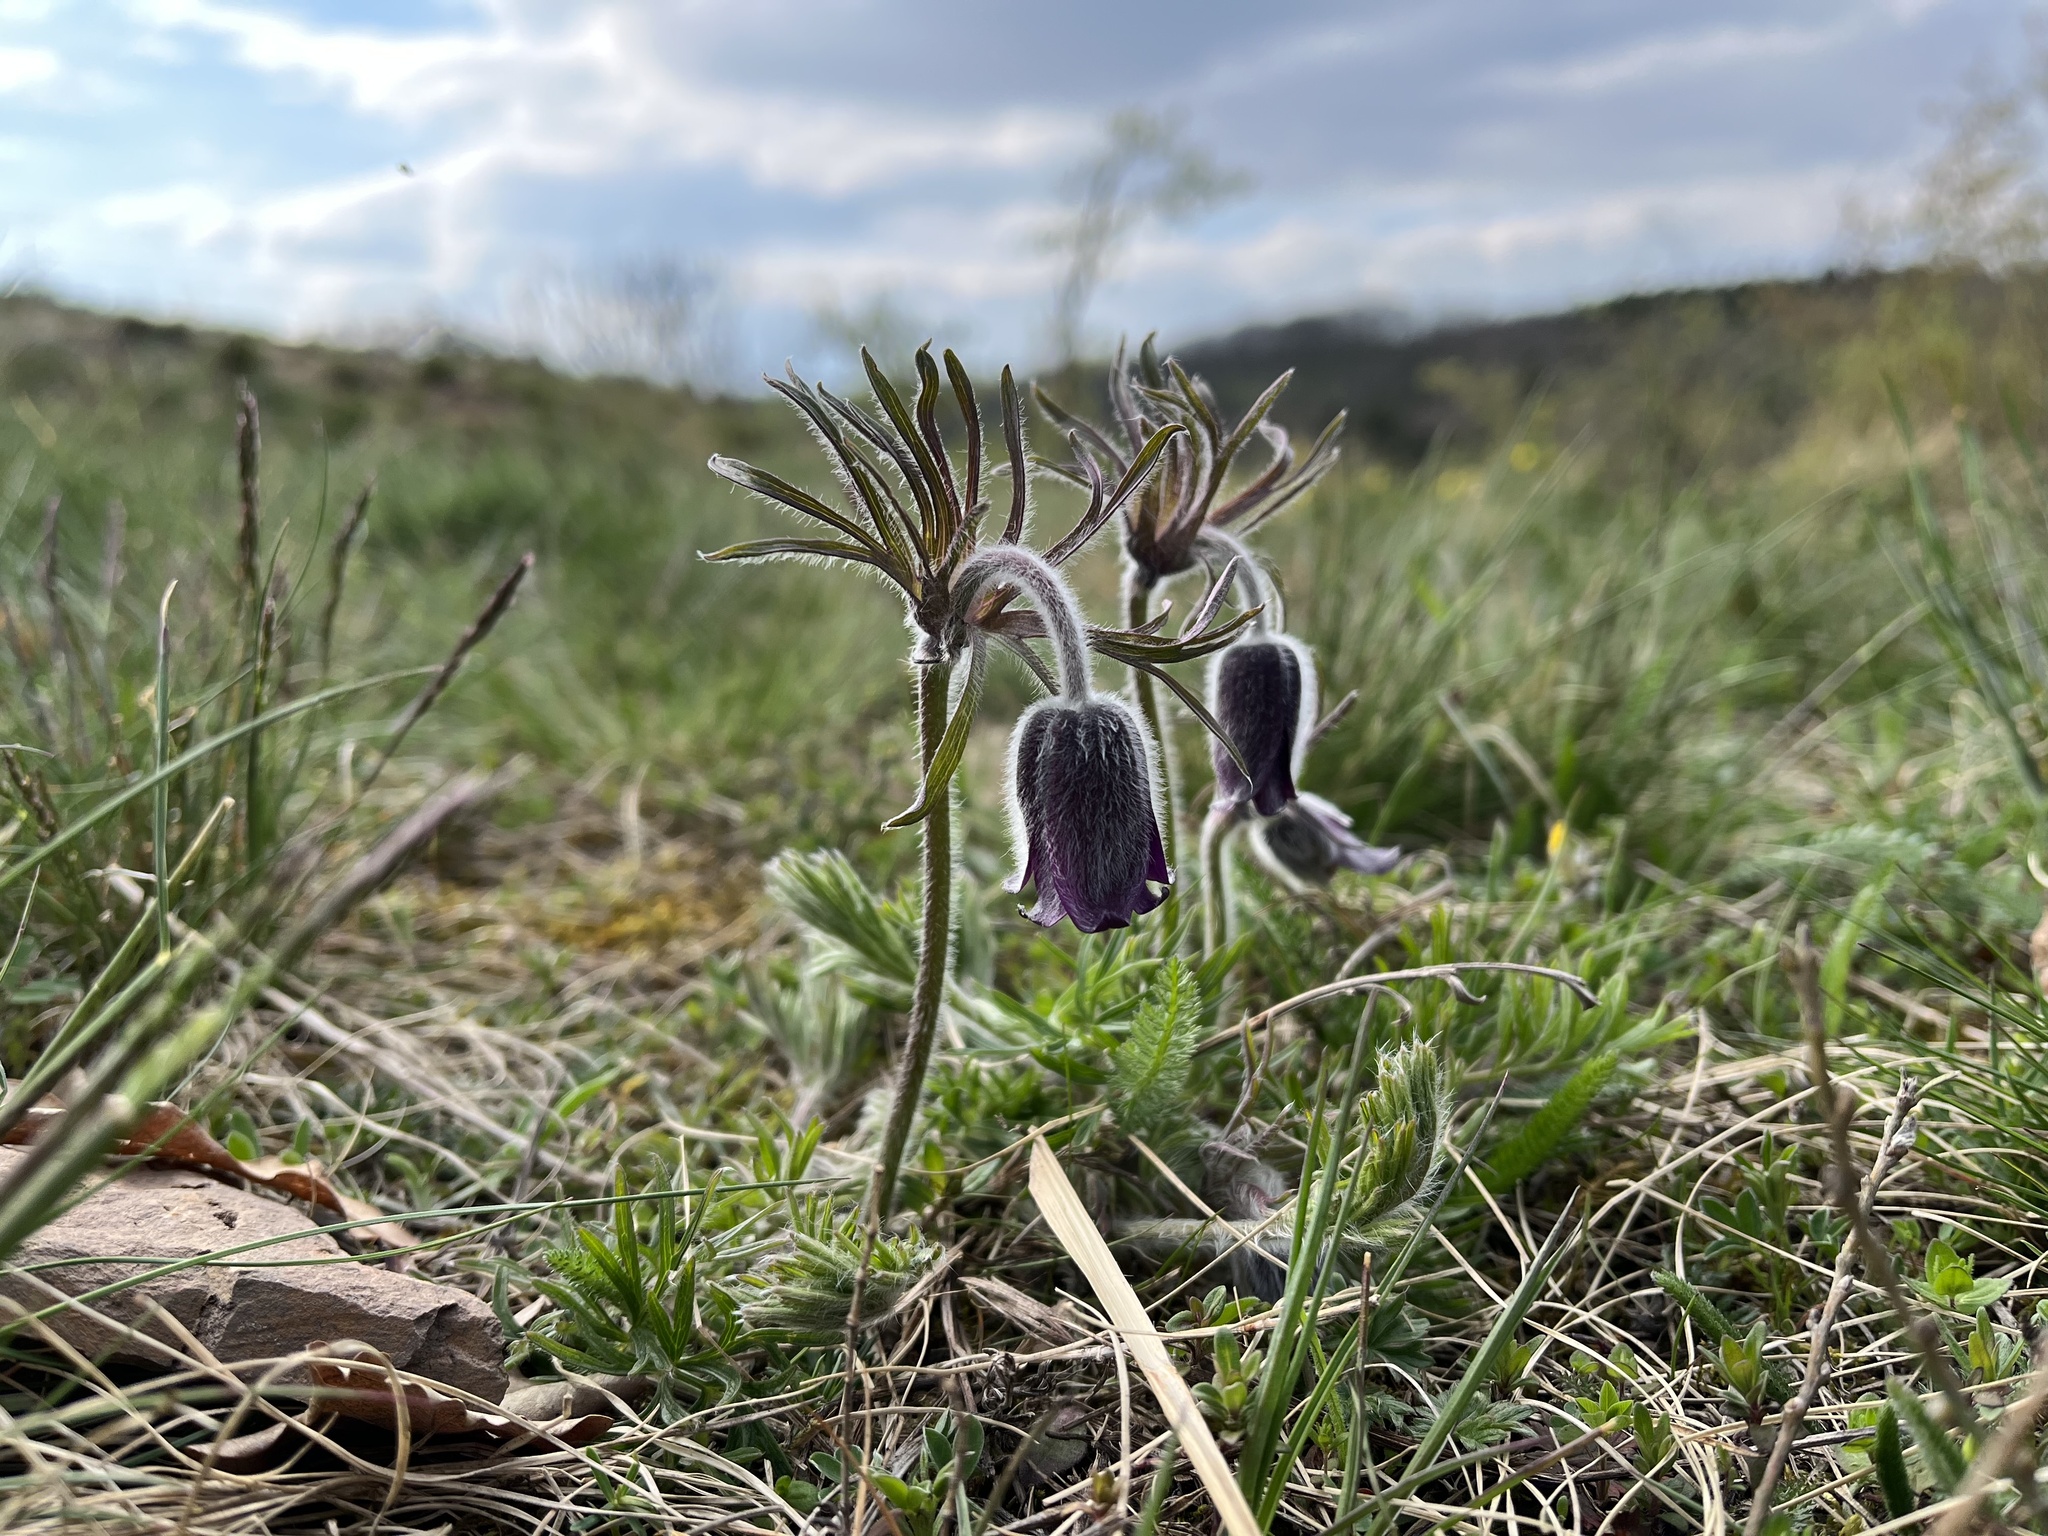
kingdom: Plantae
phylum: Tracheophyta
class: Magnoliopsida
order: Ranunculales
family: Ranunculaceae
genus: Pulsatilla
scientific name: Pulsatilla pratensis
